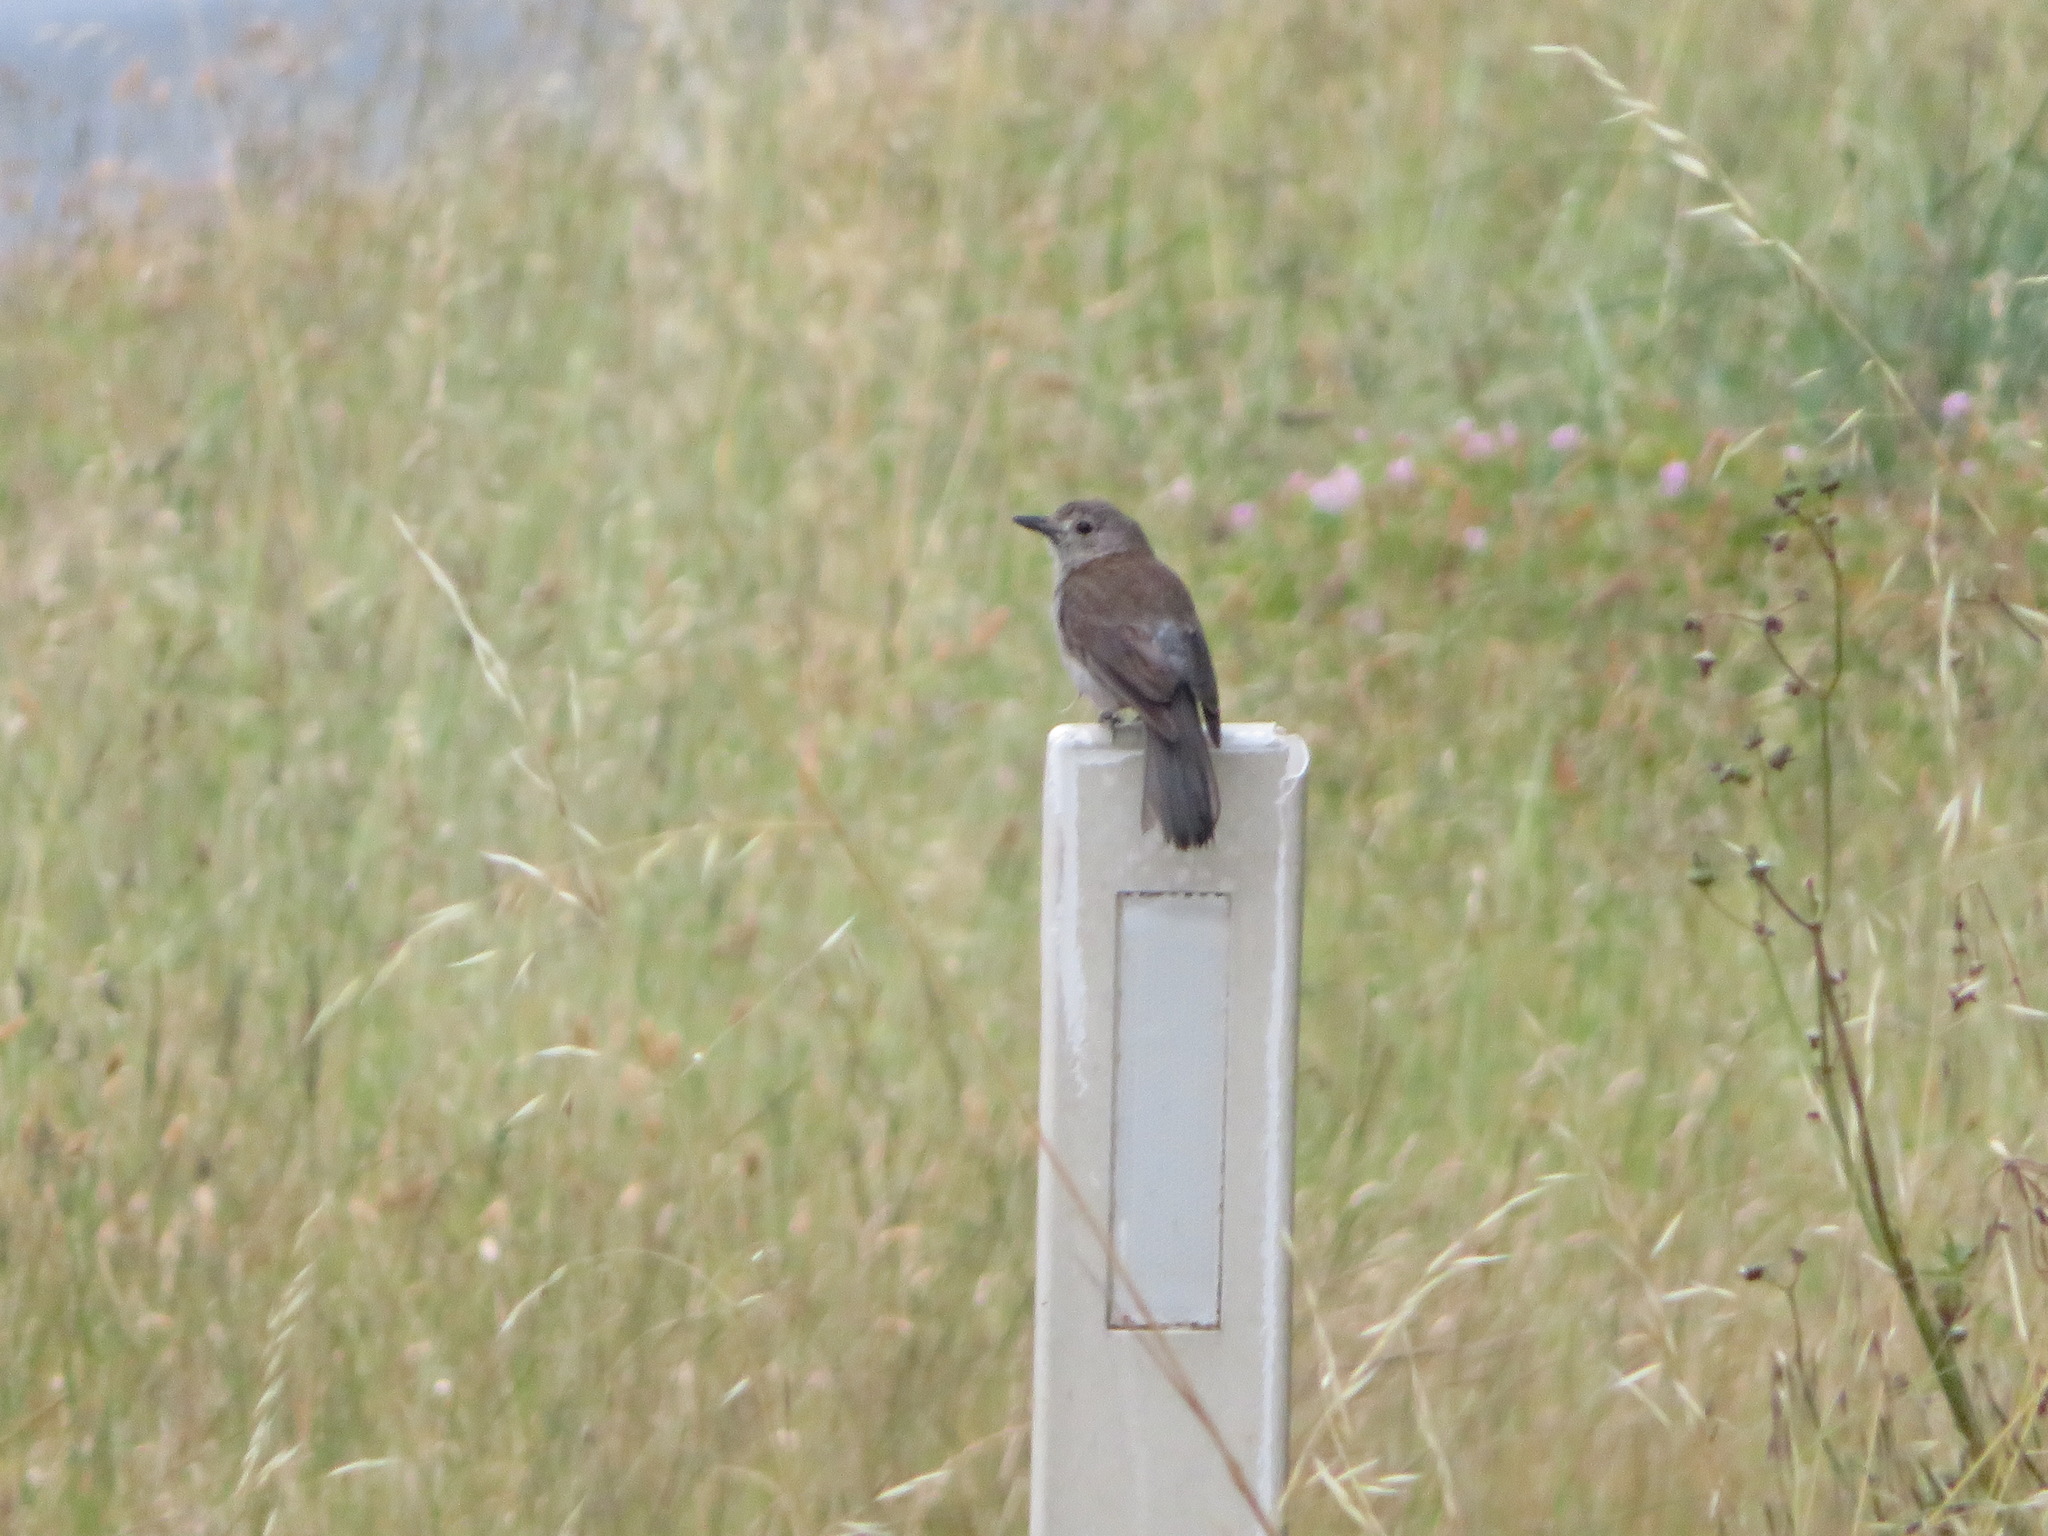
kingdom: Animalia
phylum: Chordata
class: Aves
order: Passeriformes
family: Pachycephalidae
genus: Colluricincla
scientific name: Colluricincla harmonica
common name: Grey shrikethrush
